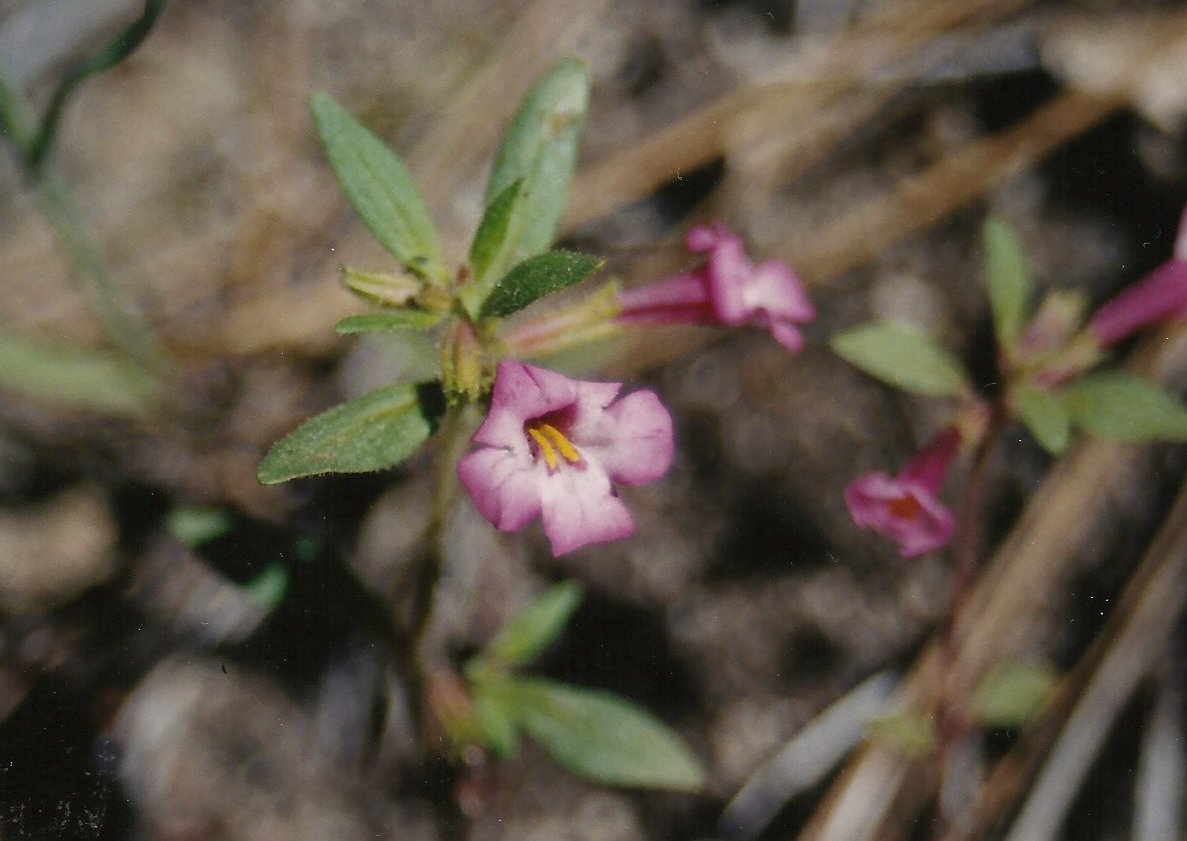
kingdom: Plantae
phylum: Tracheophyta
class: Magnoliopsida
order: Lamiales
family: Phrymaceae
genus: Diplacus
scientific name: Diplacus torreyi
